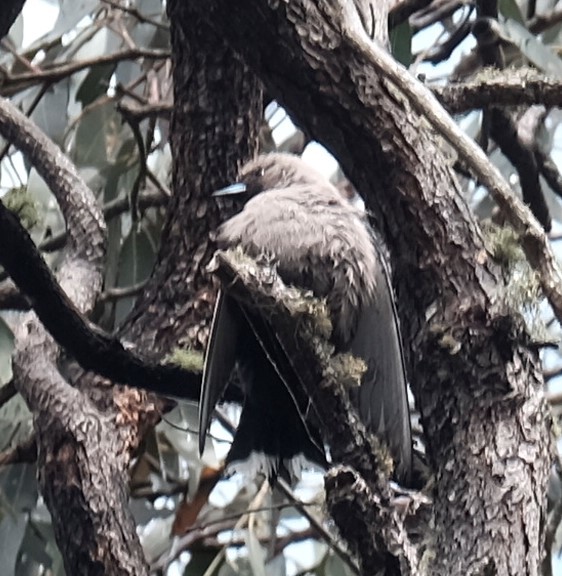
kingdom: Animalia
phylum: Chordata
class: Aves
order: Passeriformes
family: Artamidae
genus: Artamus
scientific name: Artamus cyanopterus
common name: Dusky woodswallow
